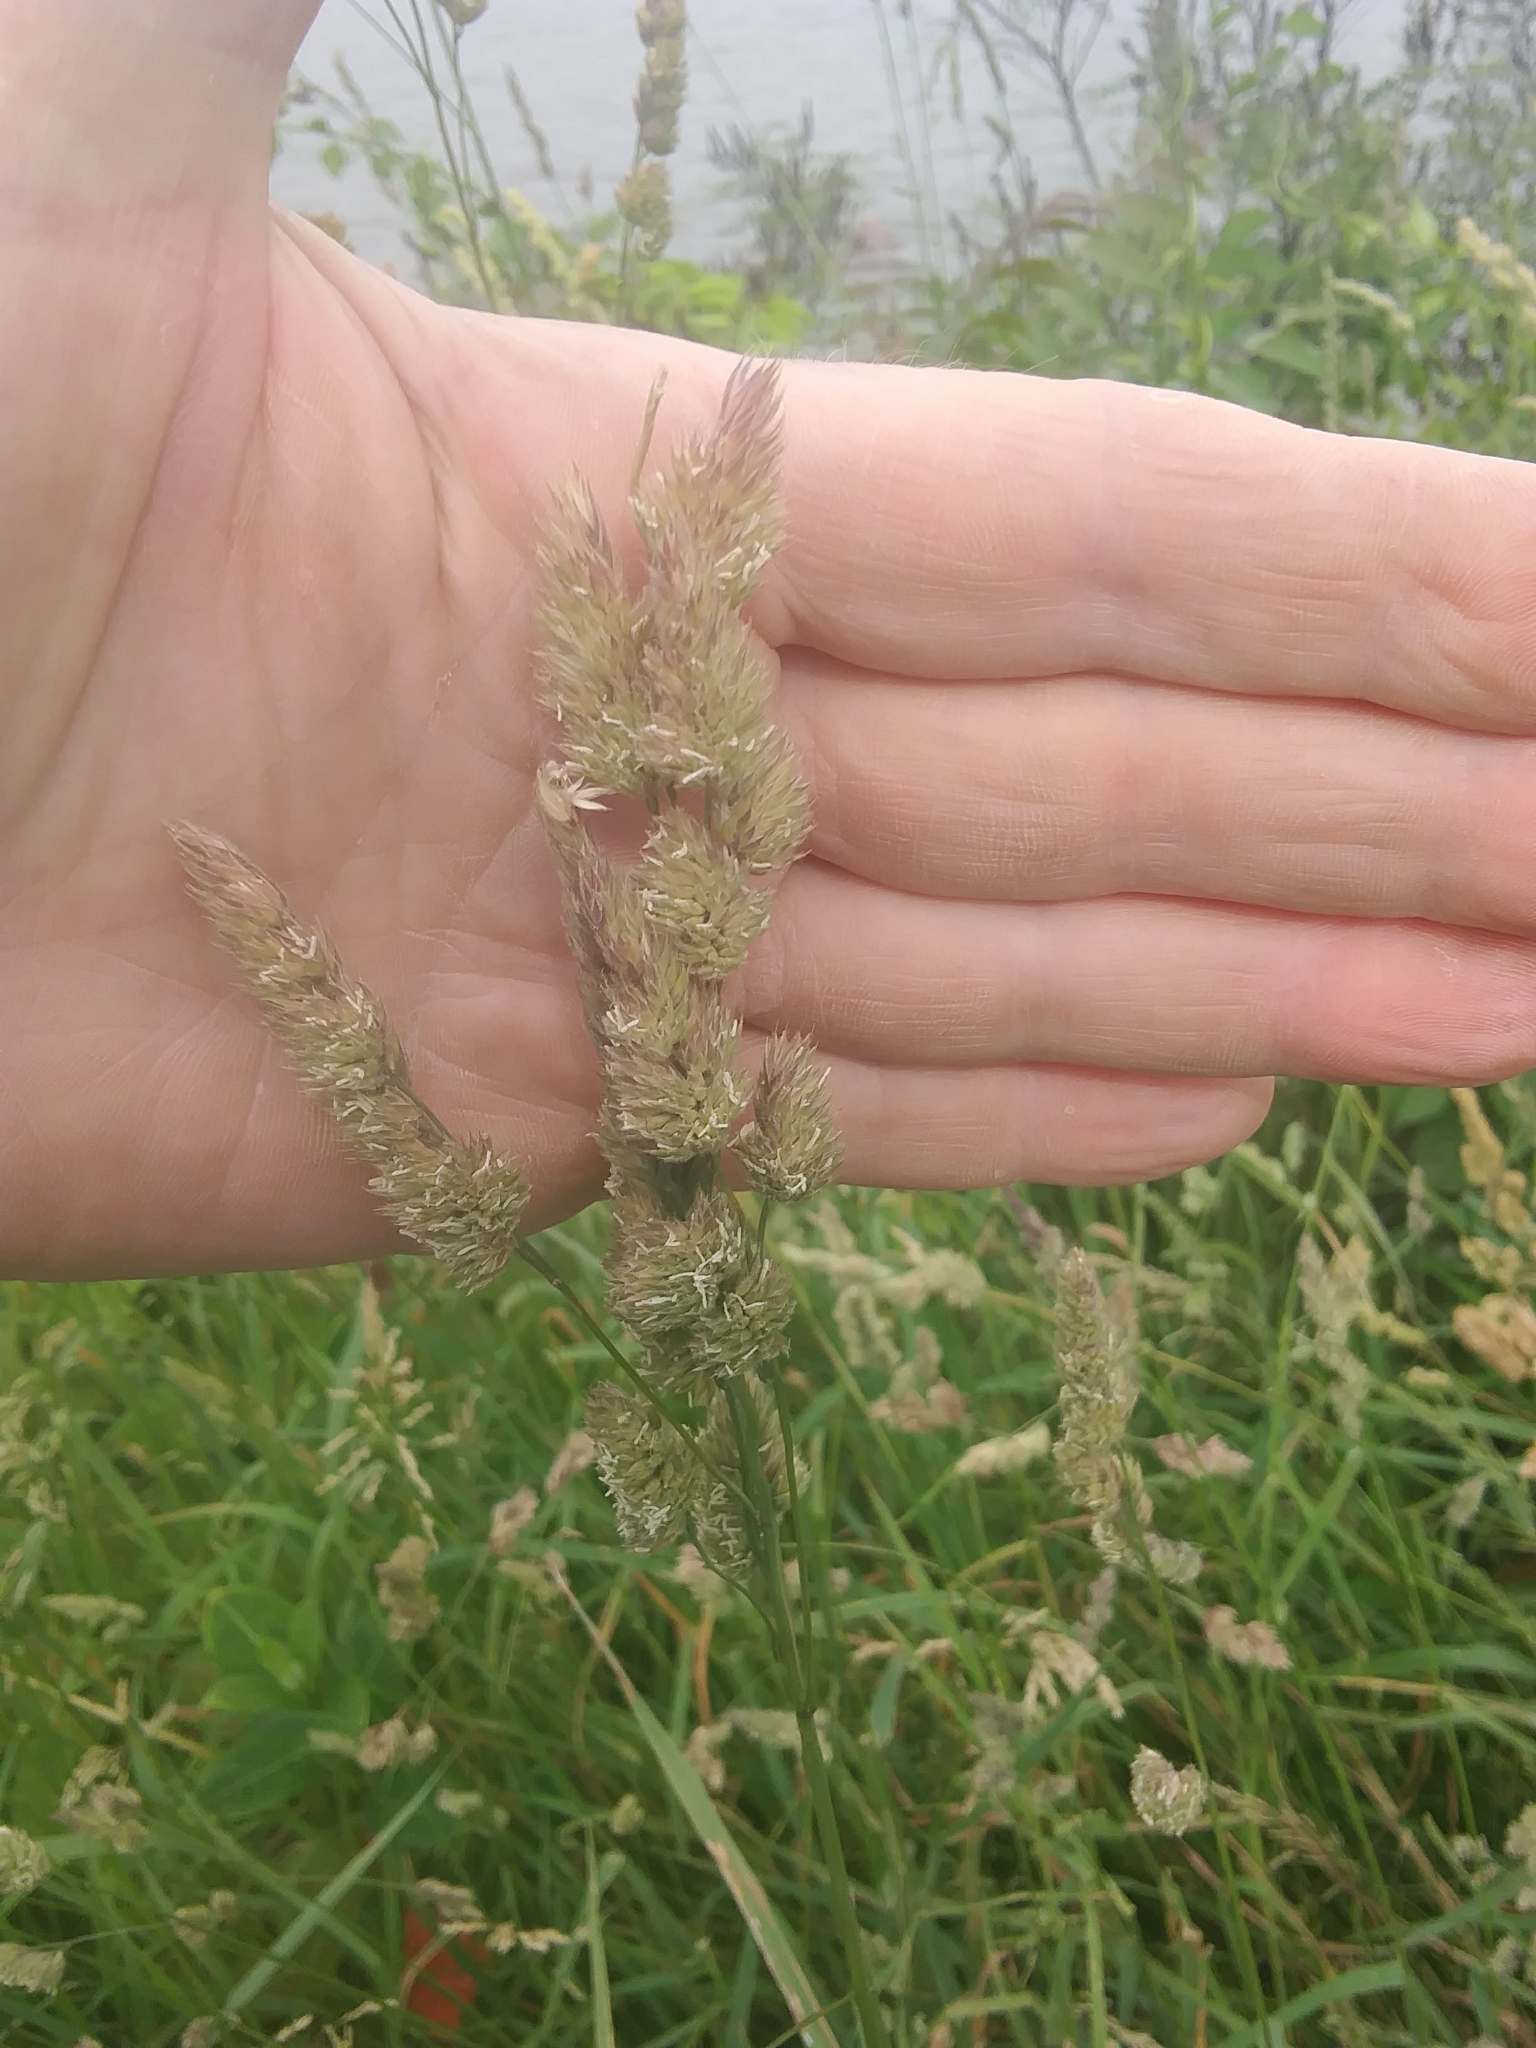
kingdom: Plantae
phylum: Tracheophyta
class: Liliopsida
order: Poales
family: Poaceae
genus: Dactylis
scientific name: Dactylis glomerata
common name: Orchardgrass
